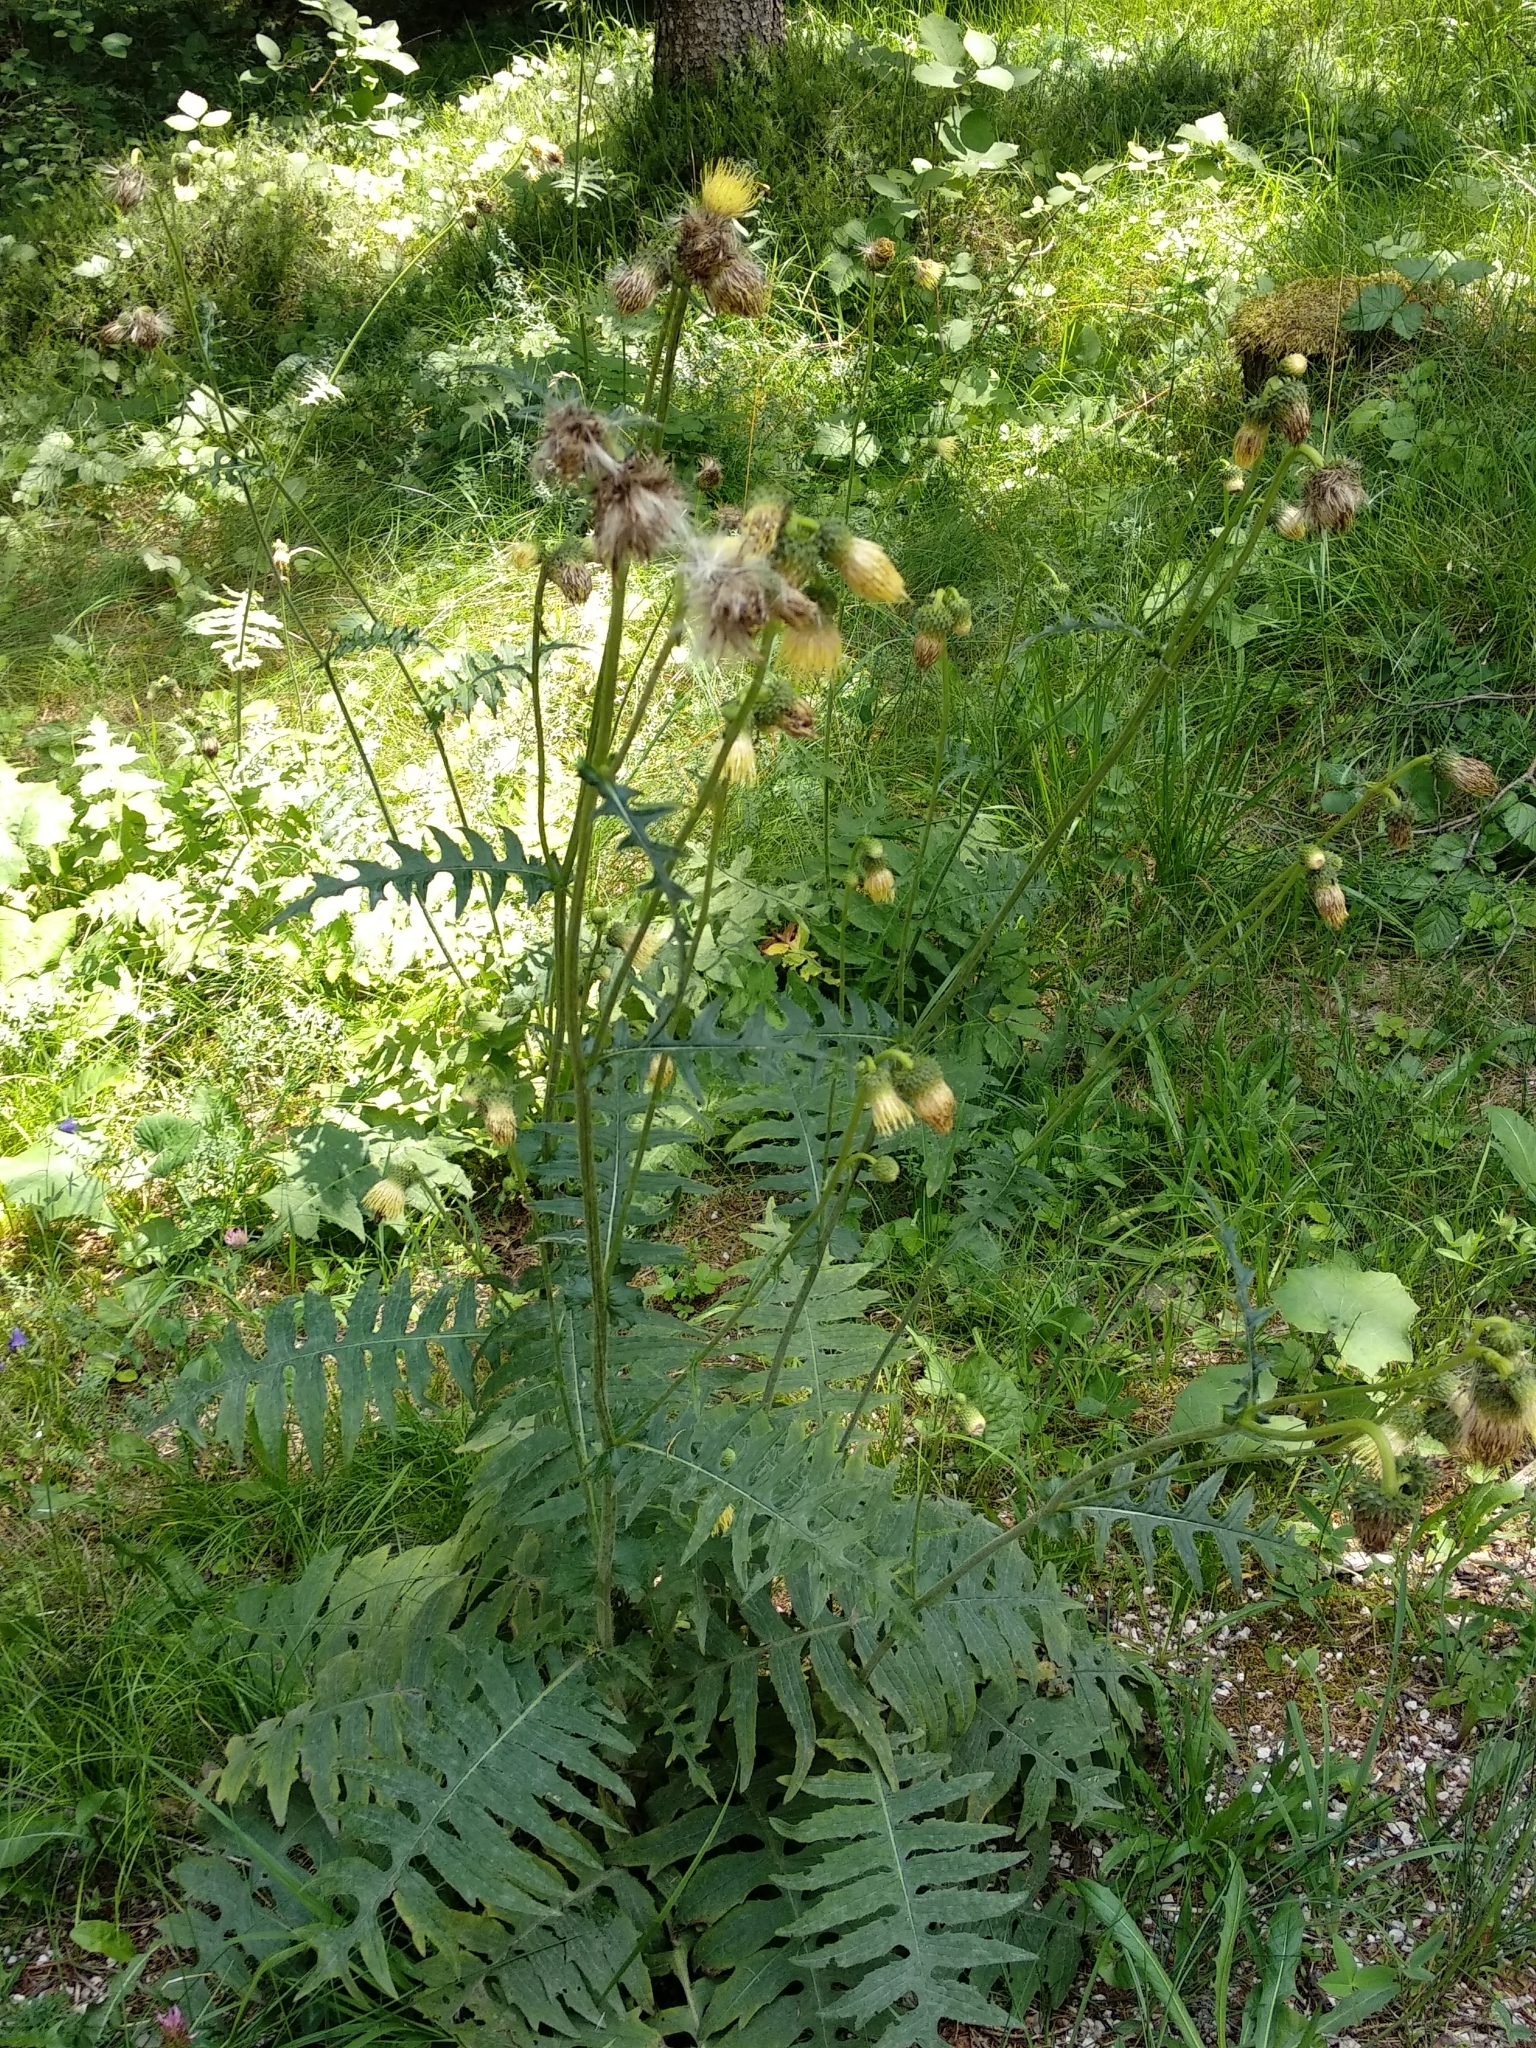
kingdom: Plantae
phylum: Tracheophyta
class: Magnoliopsida
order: Asterales
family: Asteraceae
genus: Cirsium
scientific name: Cirsium erisithales
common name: Yellow thistle
